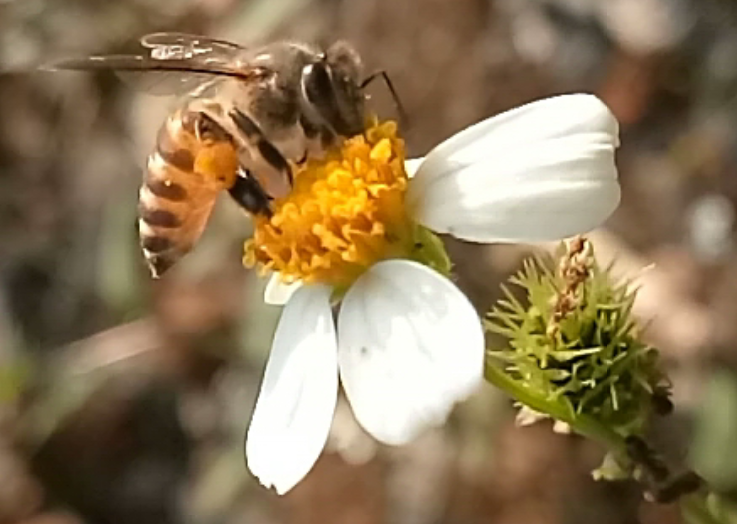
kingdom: Animalia
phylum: Arthropoda
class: Insecta
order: Hymenoptera
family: Apidae
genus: Apis
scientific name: Apis cerana
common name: Honey bee
